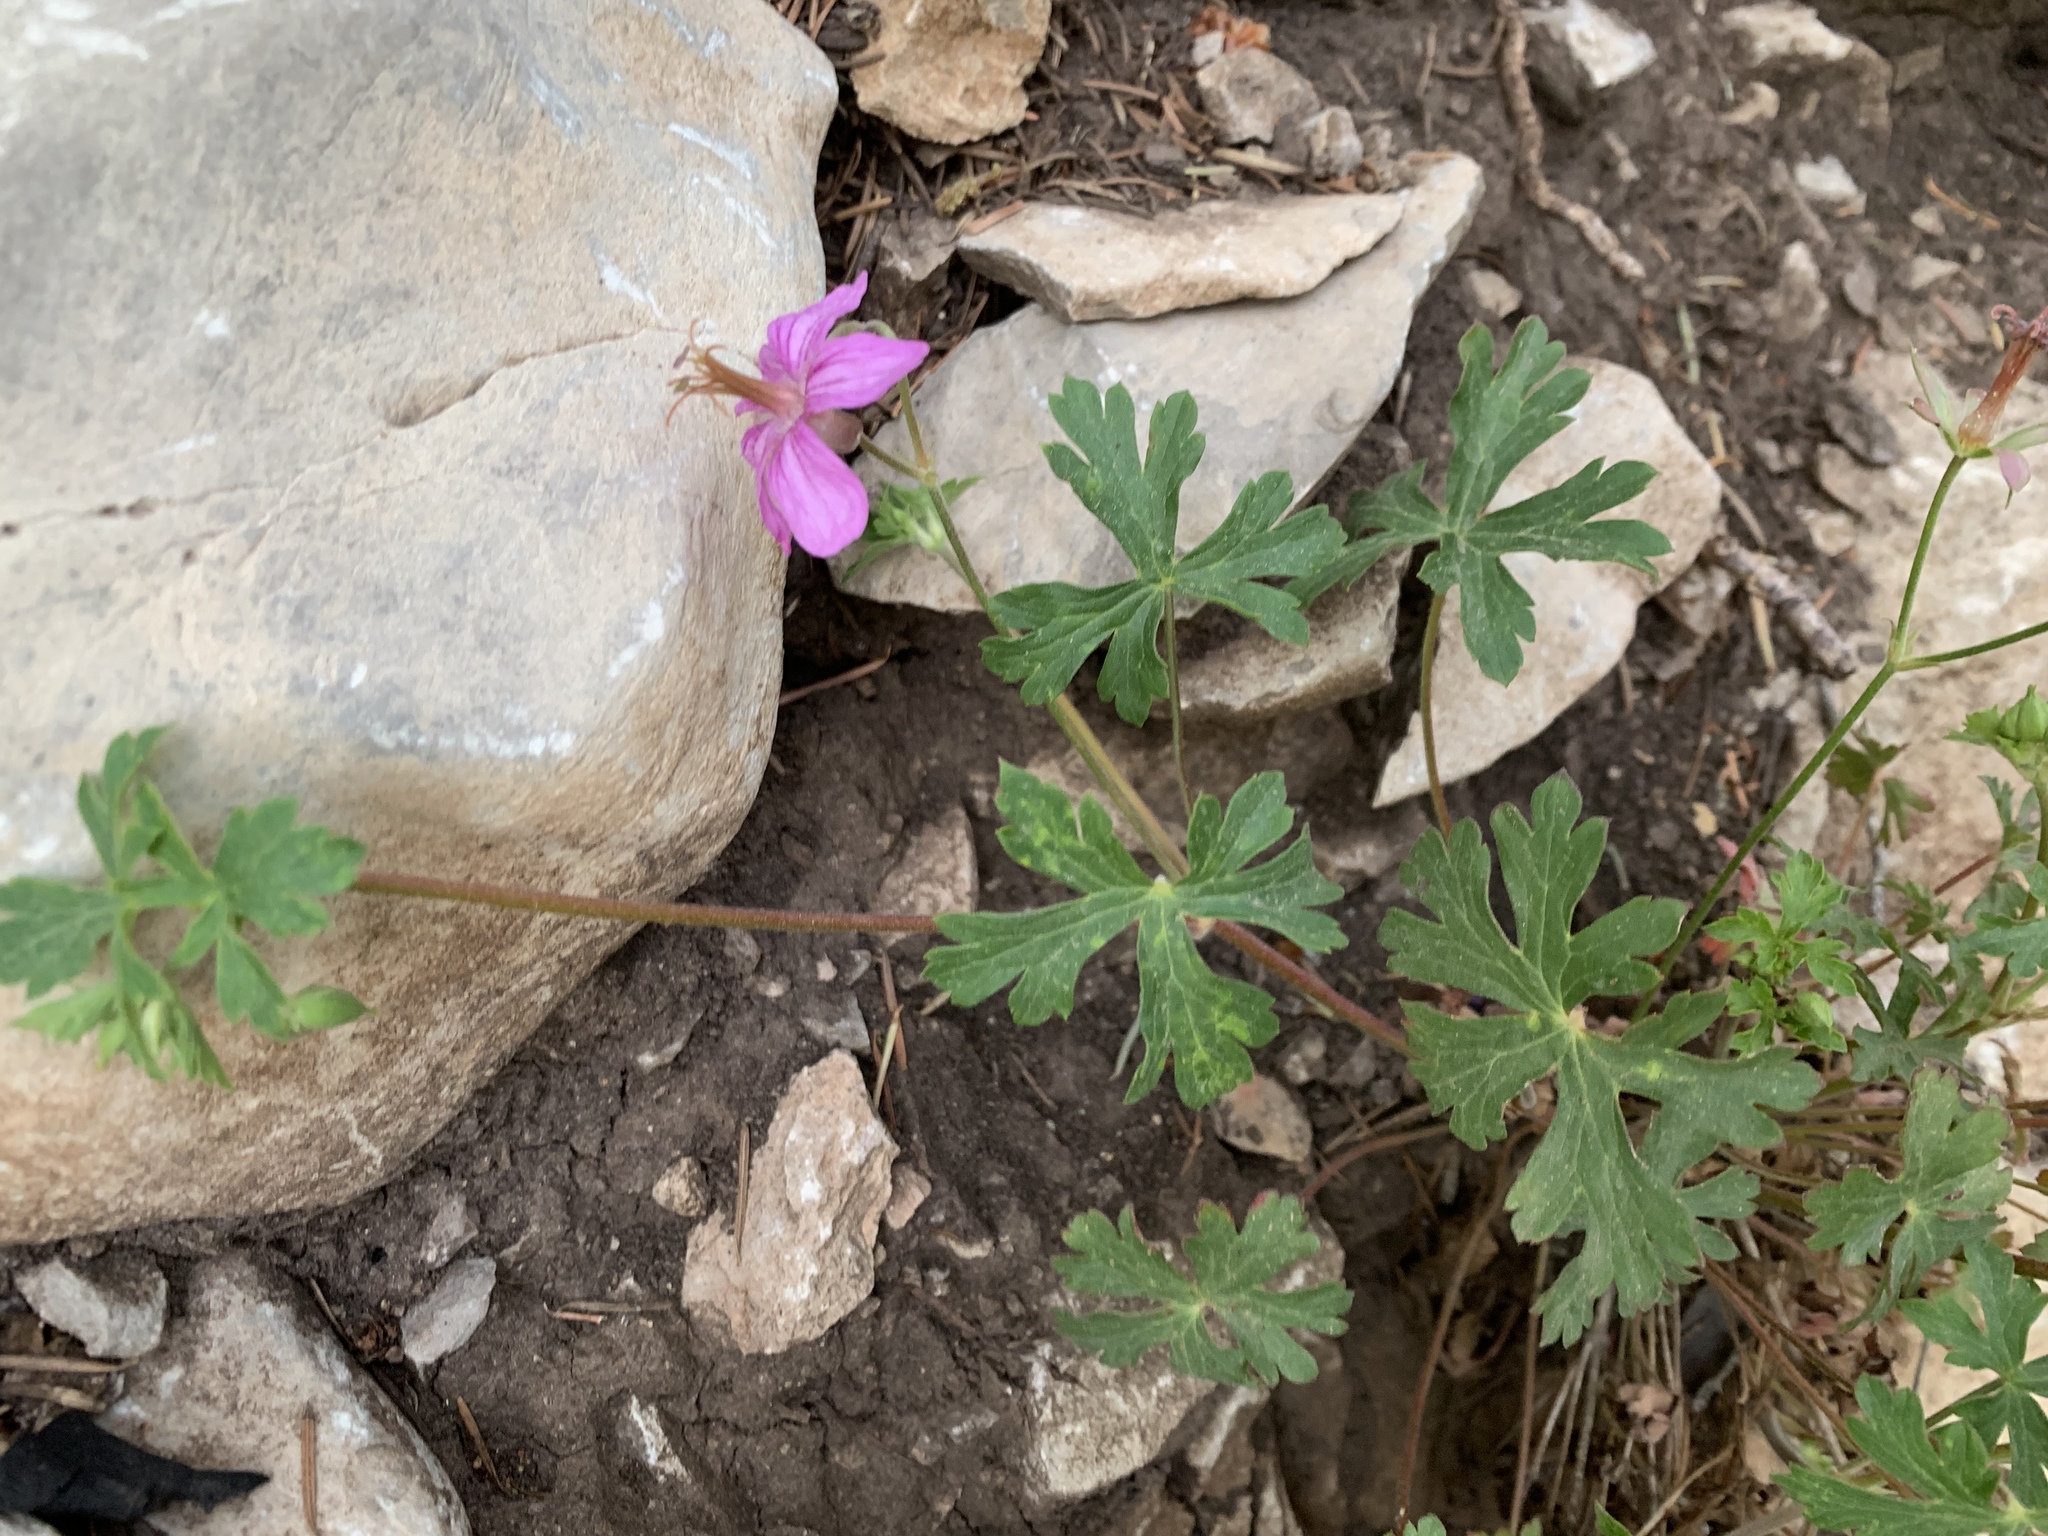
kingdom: Plantae
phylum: Tracheophyta
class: Magnoliopsida
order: Geraniales
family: Geraniaceae
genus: Geranium
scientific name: Geranium caespitosum
